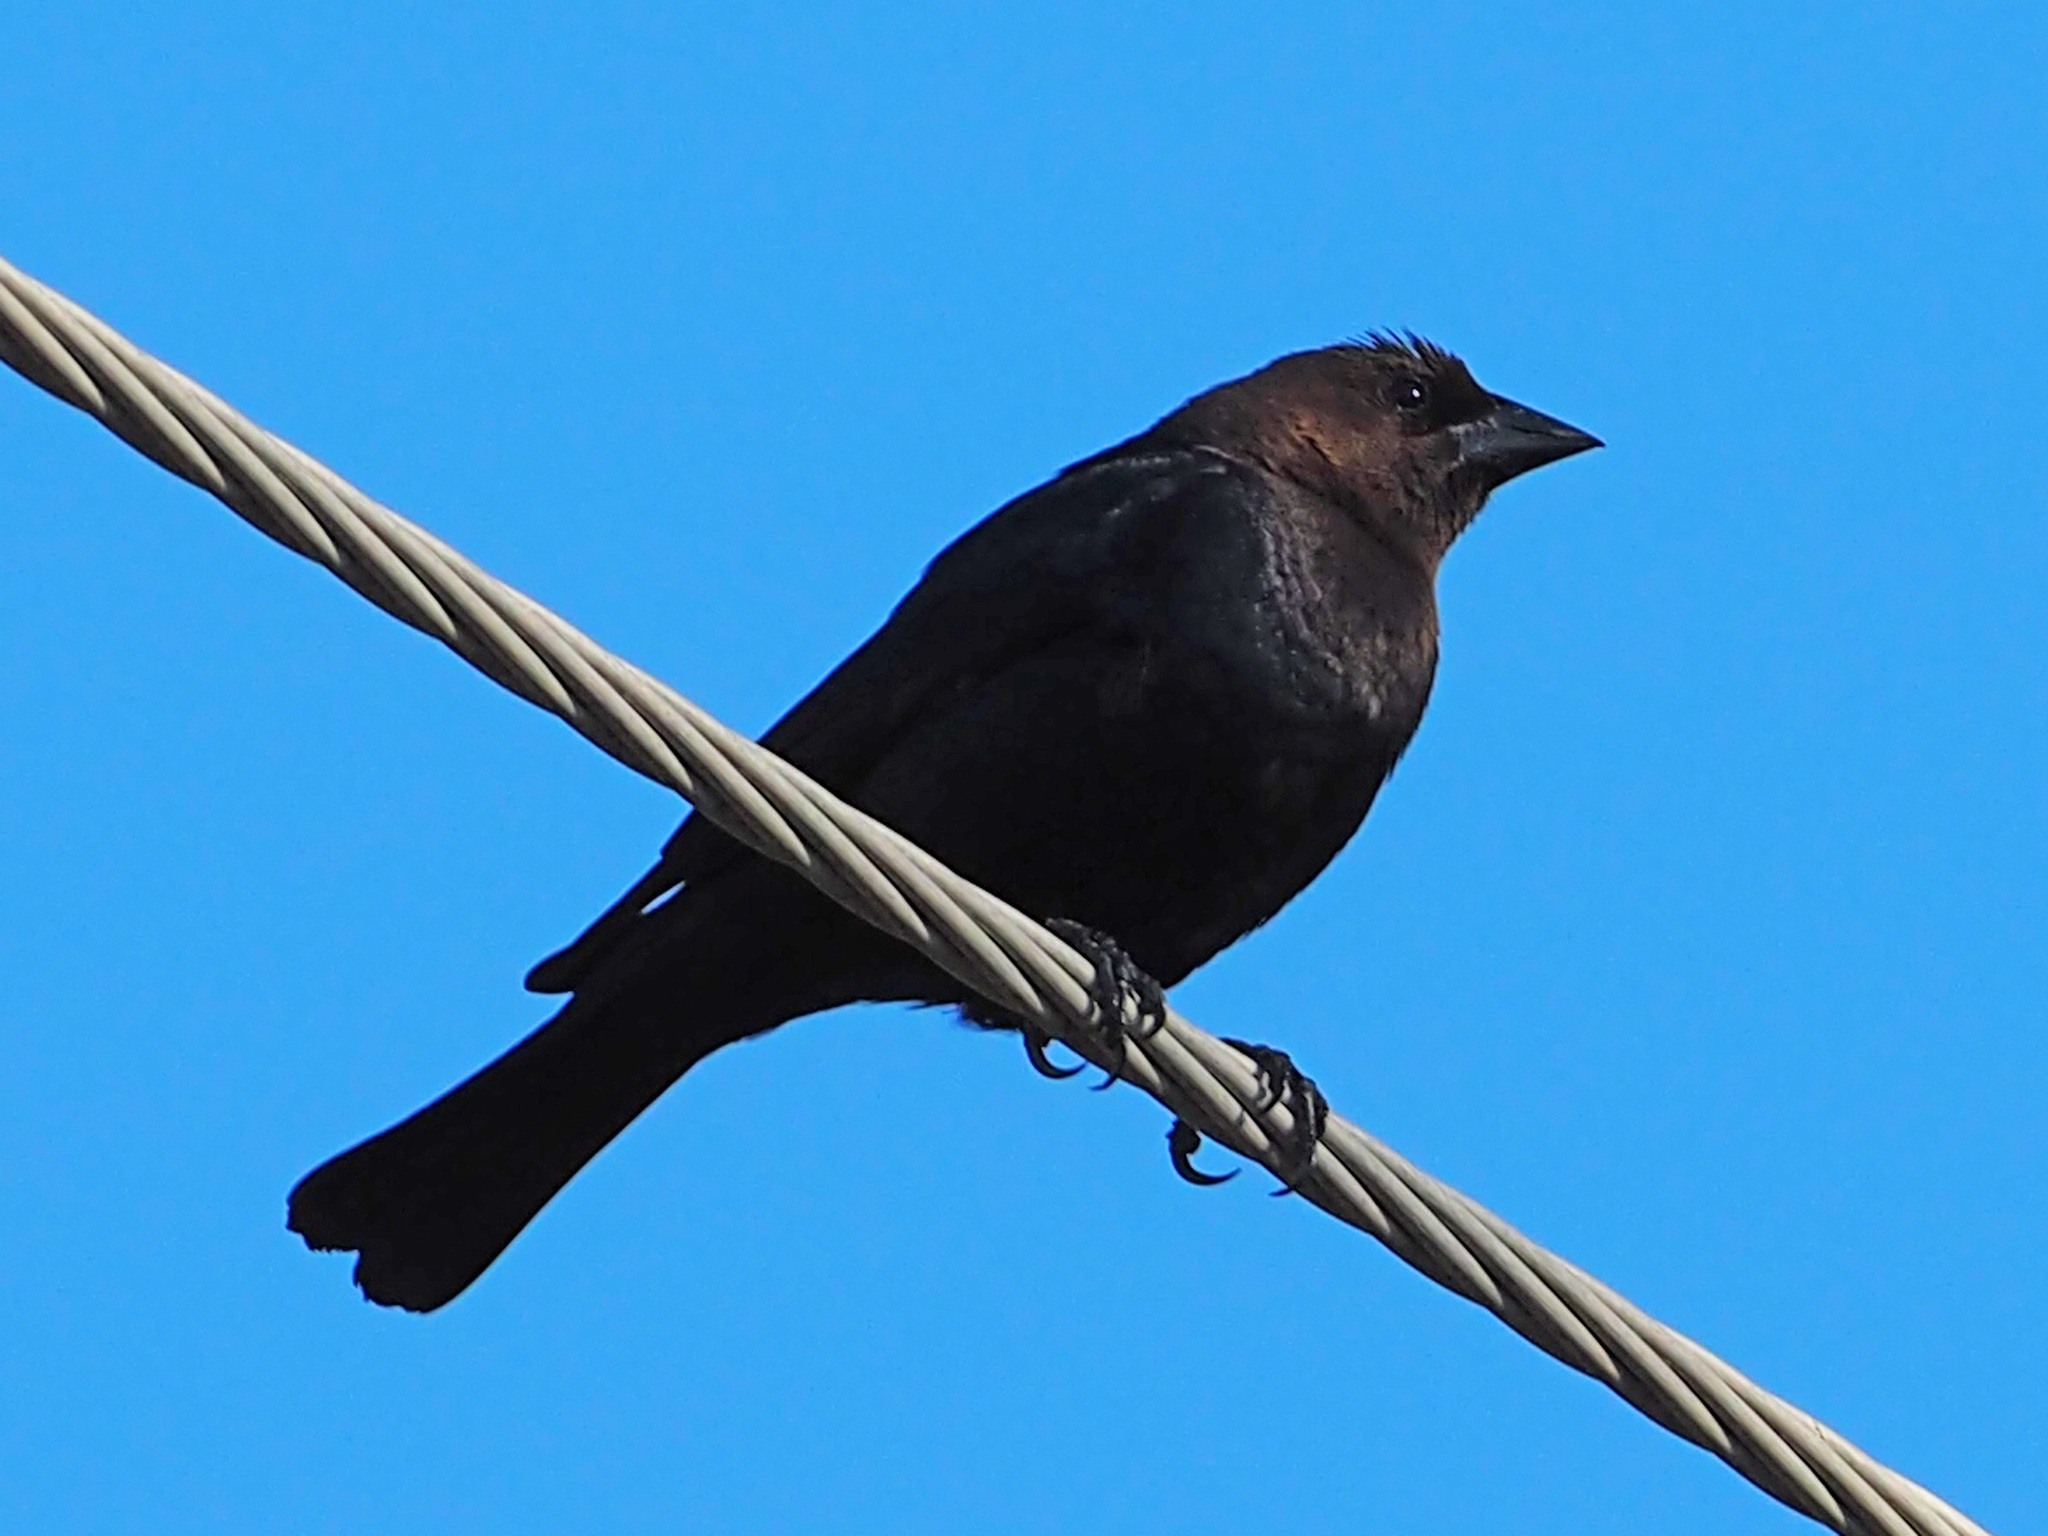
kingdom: Animalia
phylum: Chordata
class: Aves
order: Passeriformes
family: Icteridae
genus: Molothrus
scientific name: Molothrus ater
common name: Brown-headed cowbird
